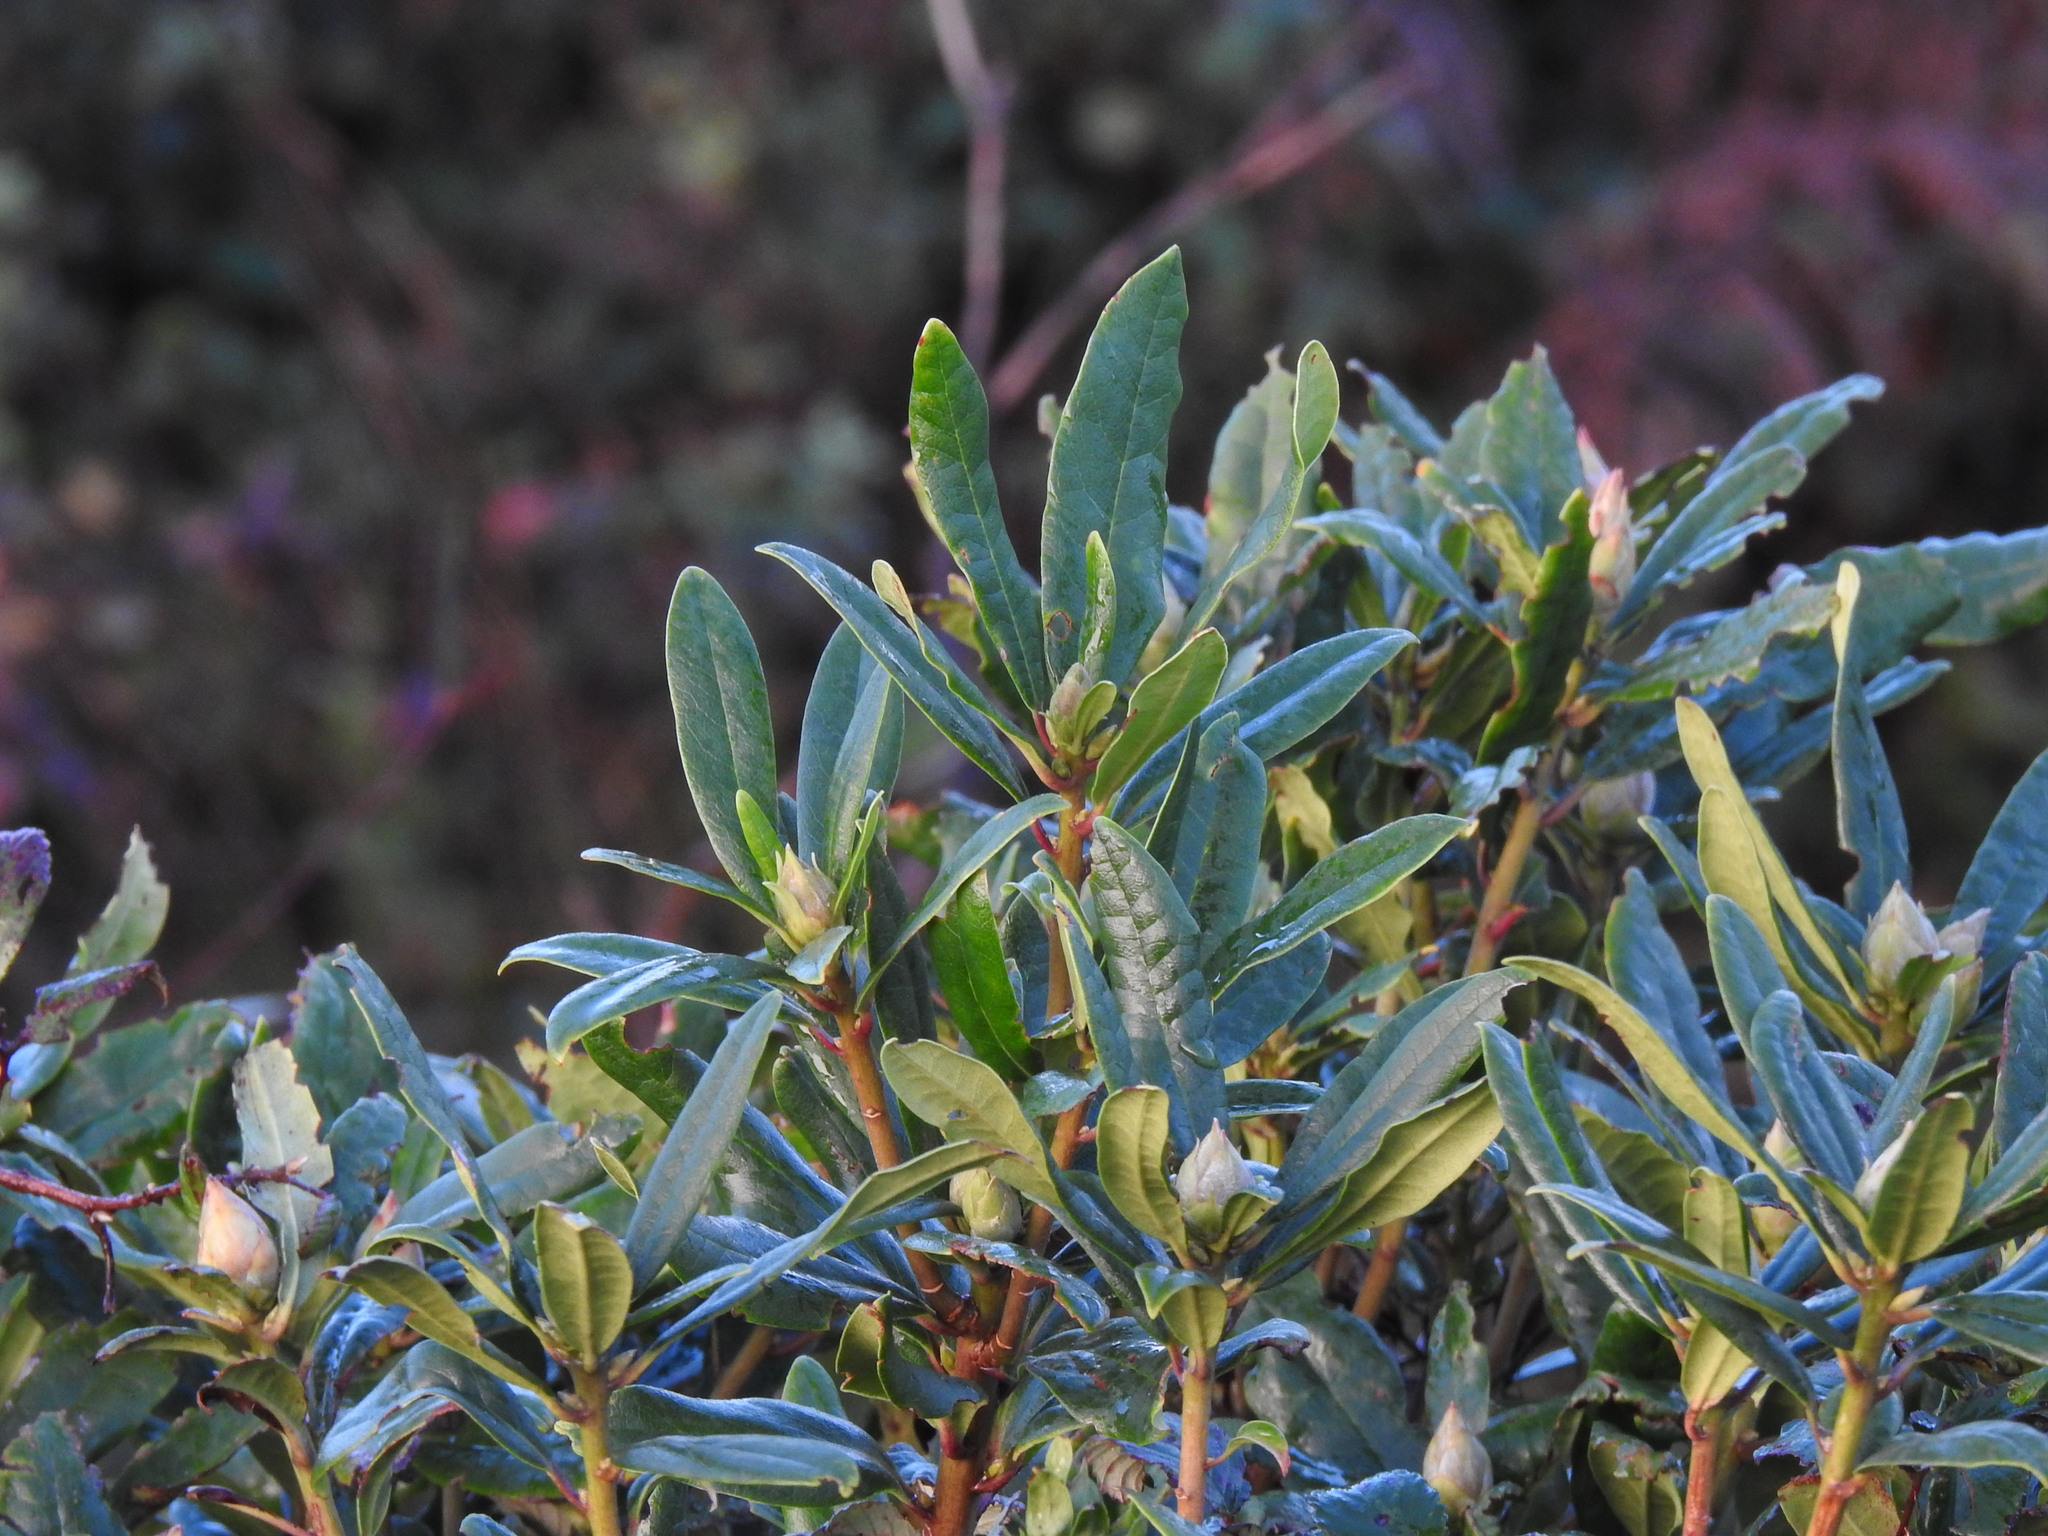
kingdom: Plantae
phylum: Tracheophyta
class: Magnoliopsida
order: Ericales
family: Ericaceae
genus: Rhododendron
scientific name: Rhododendron ponticum
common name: Rhododendron
